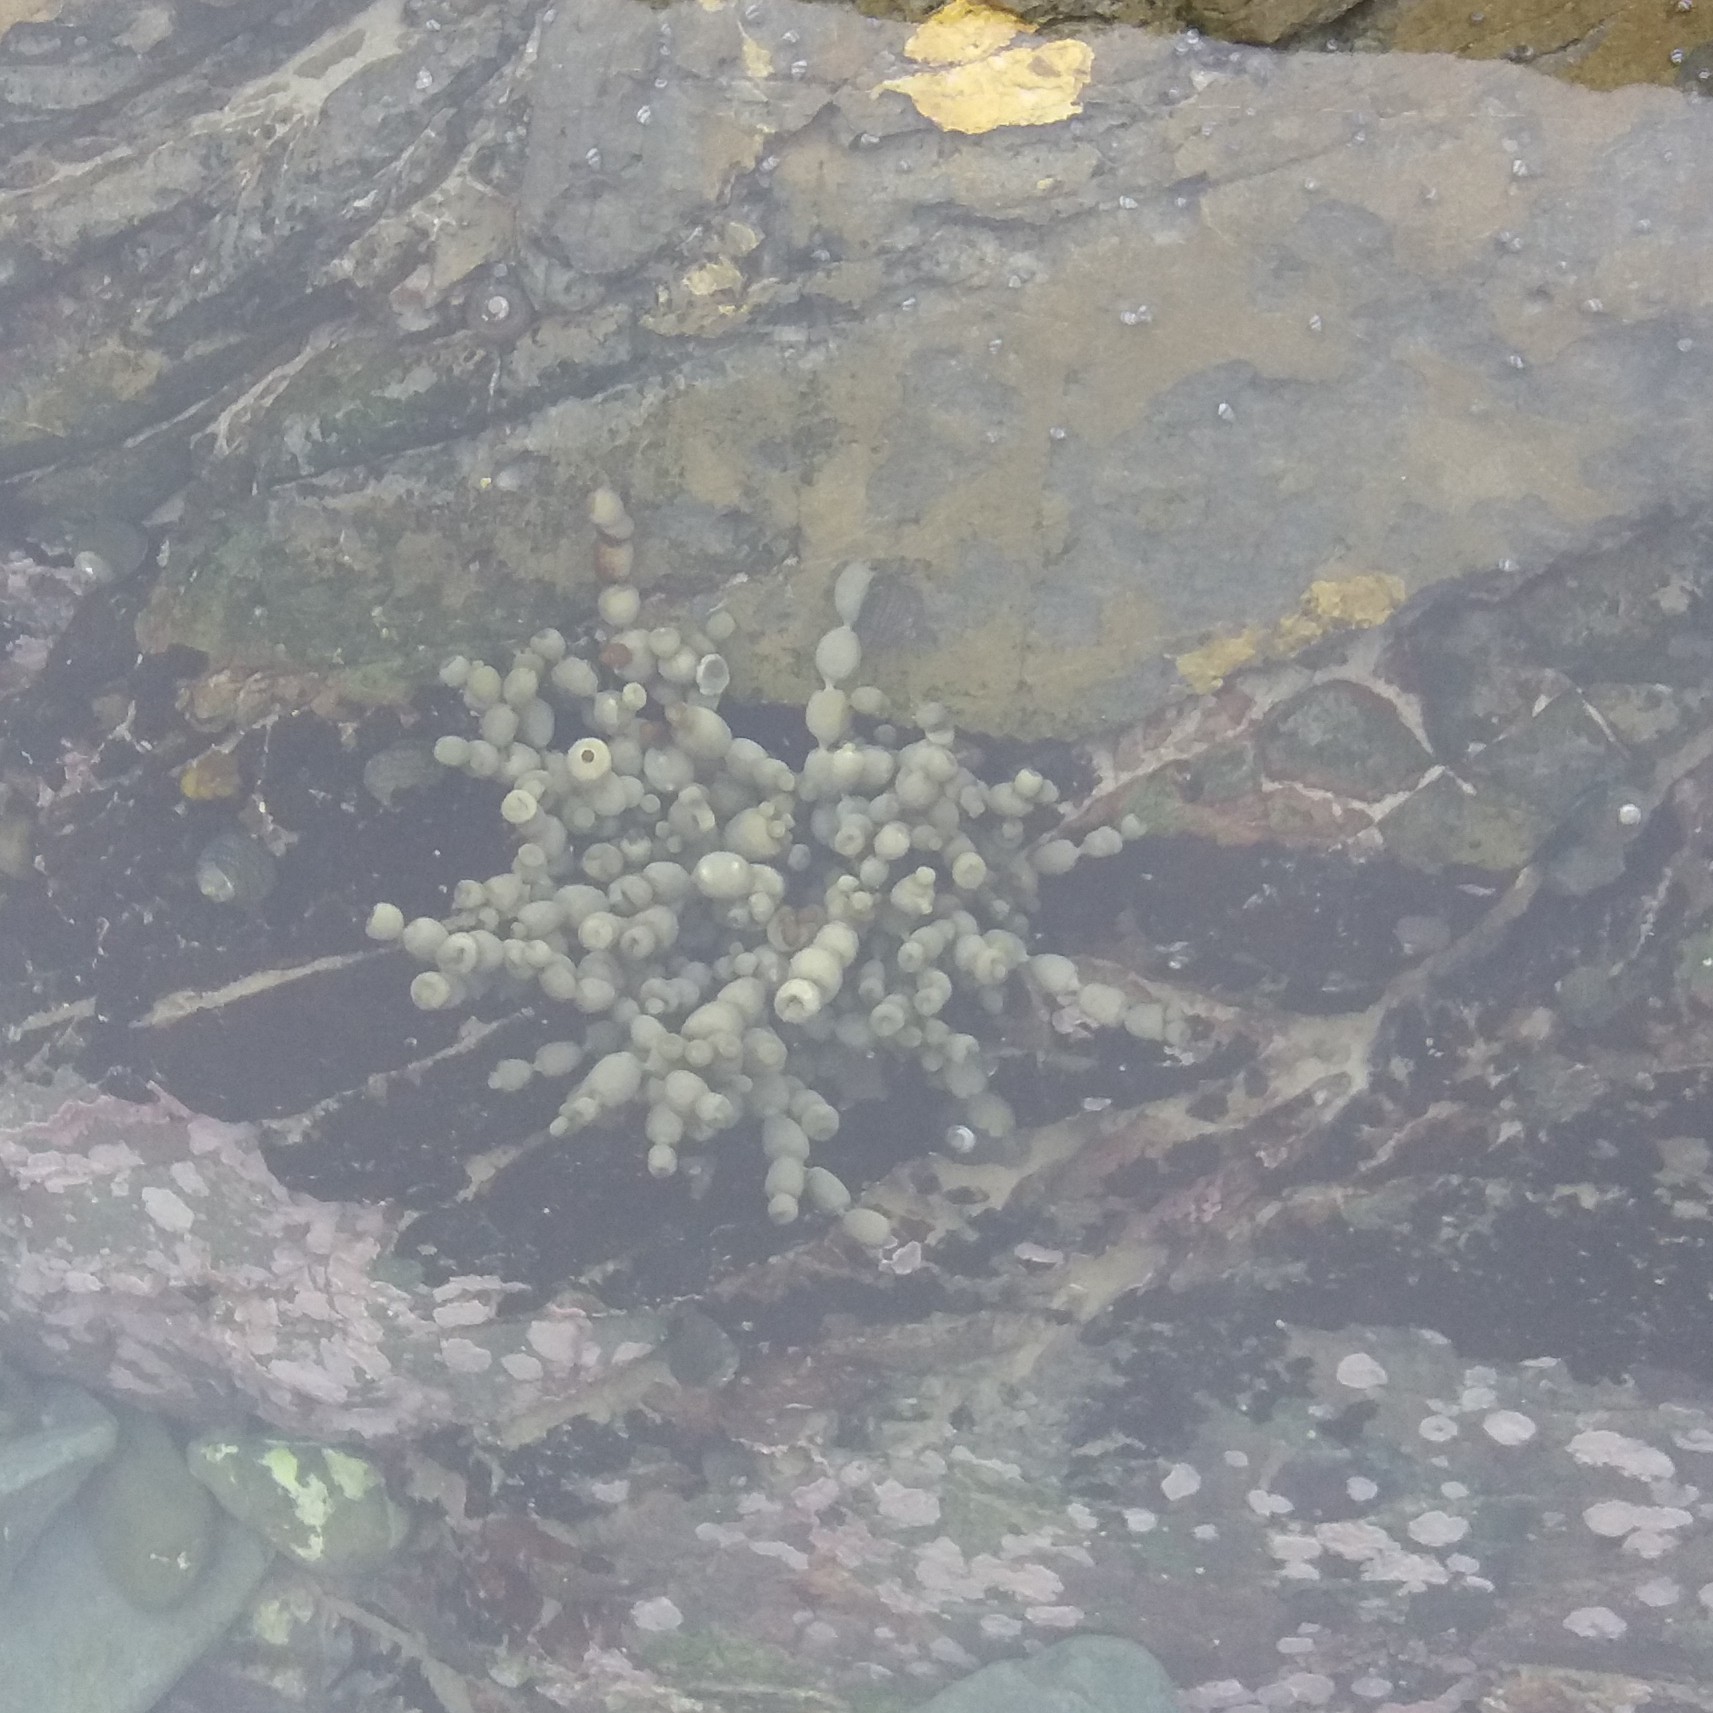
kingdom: Chromista
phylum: Ochrophyta
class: Phaeophyceae
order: Fucales
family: Hormosiraceae
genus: Hormosira
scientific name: Hormosira banksii
